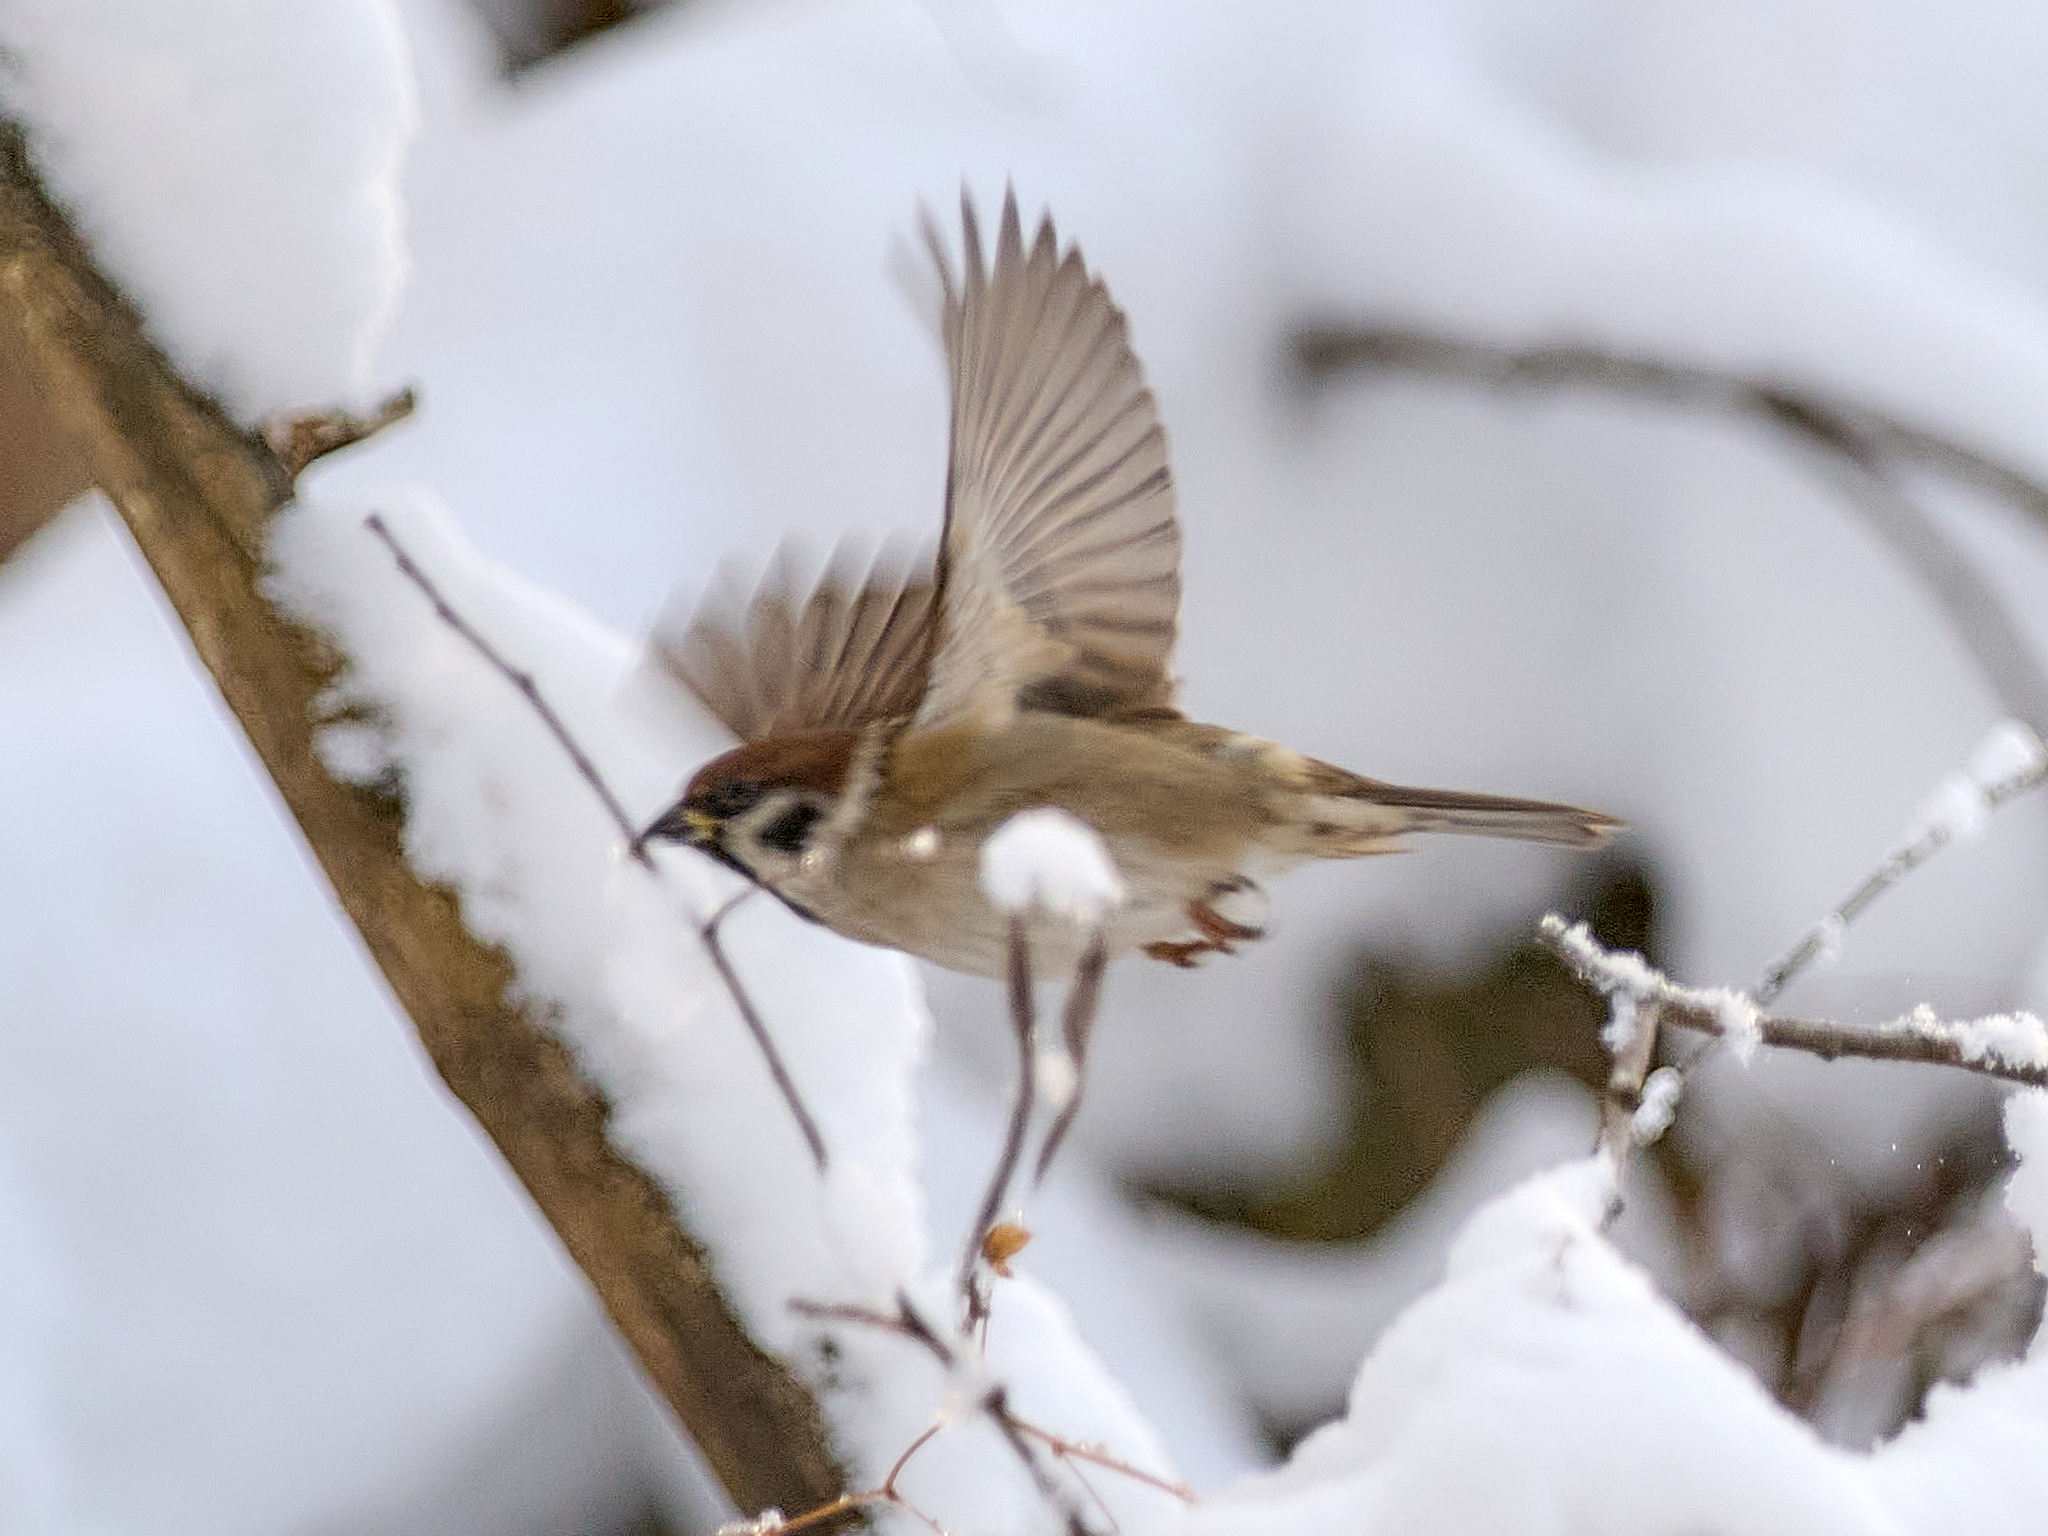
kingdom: Animalia
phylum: Chordata
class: Aves
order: Passeriformes
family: Passeridae
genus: Passer
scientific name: Passer montanus
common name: Eurasian tree sparrow
